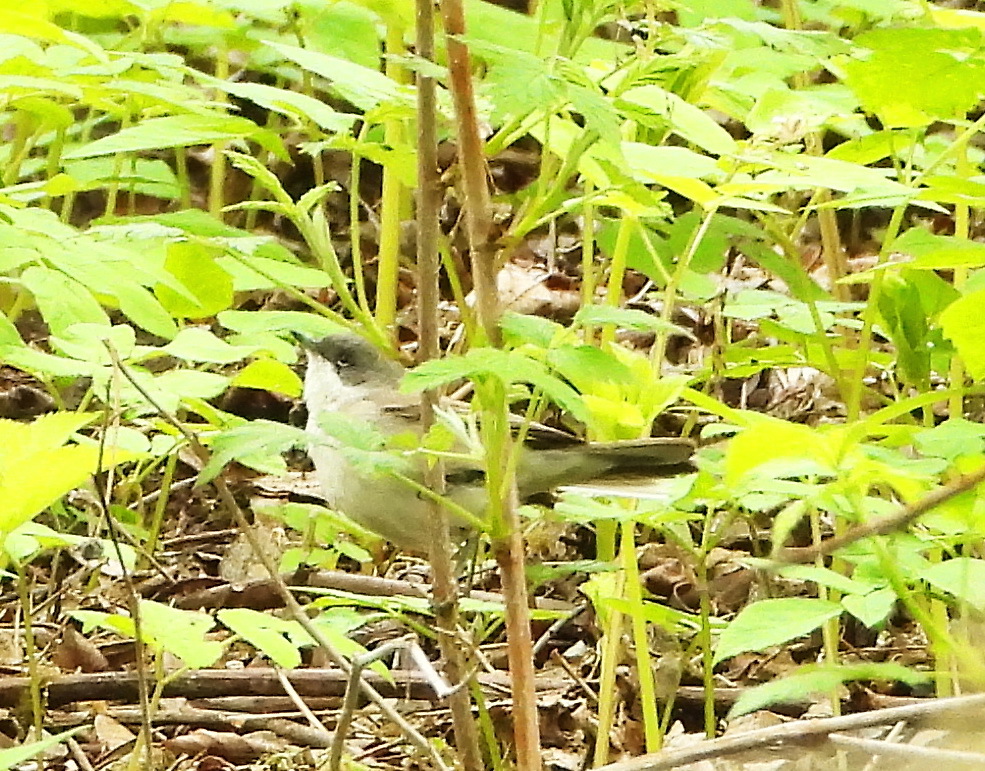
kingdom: Animalia
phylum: Chordata
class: Aves
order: Passeriformes
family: Sylviidae
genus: Sylvia
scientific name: Sylvia curruca
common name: Lesser whitethroat
